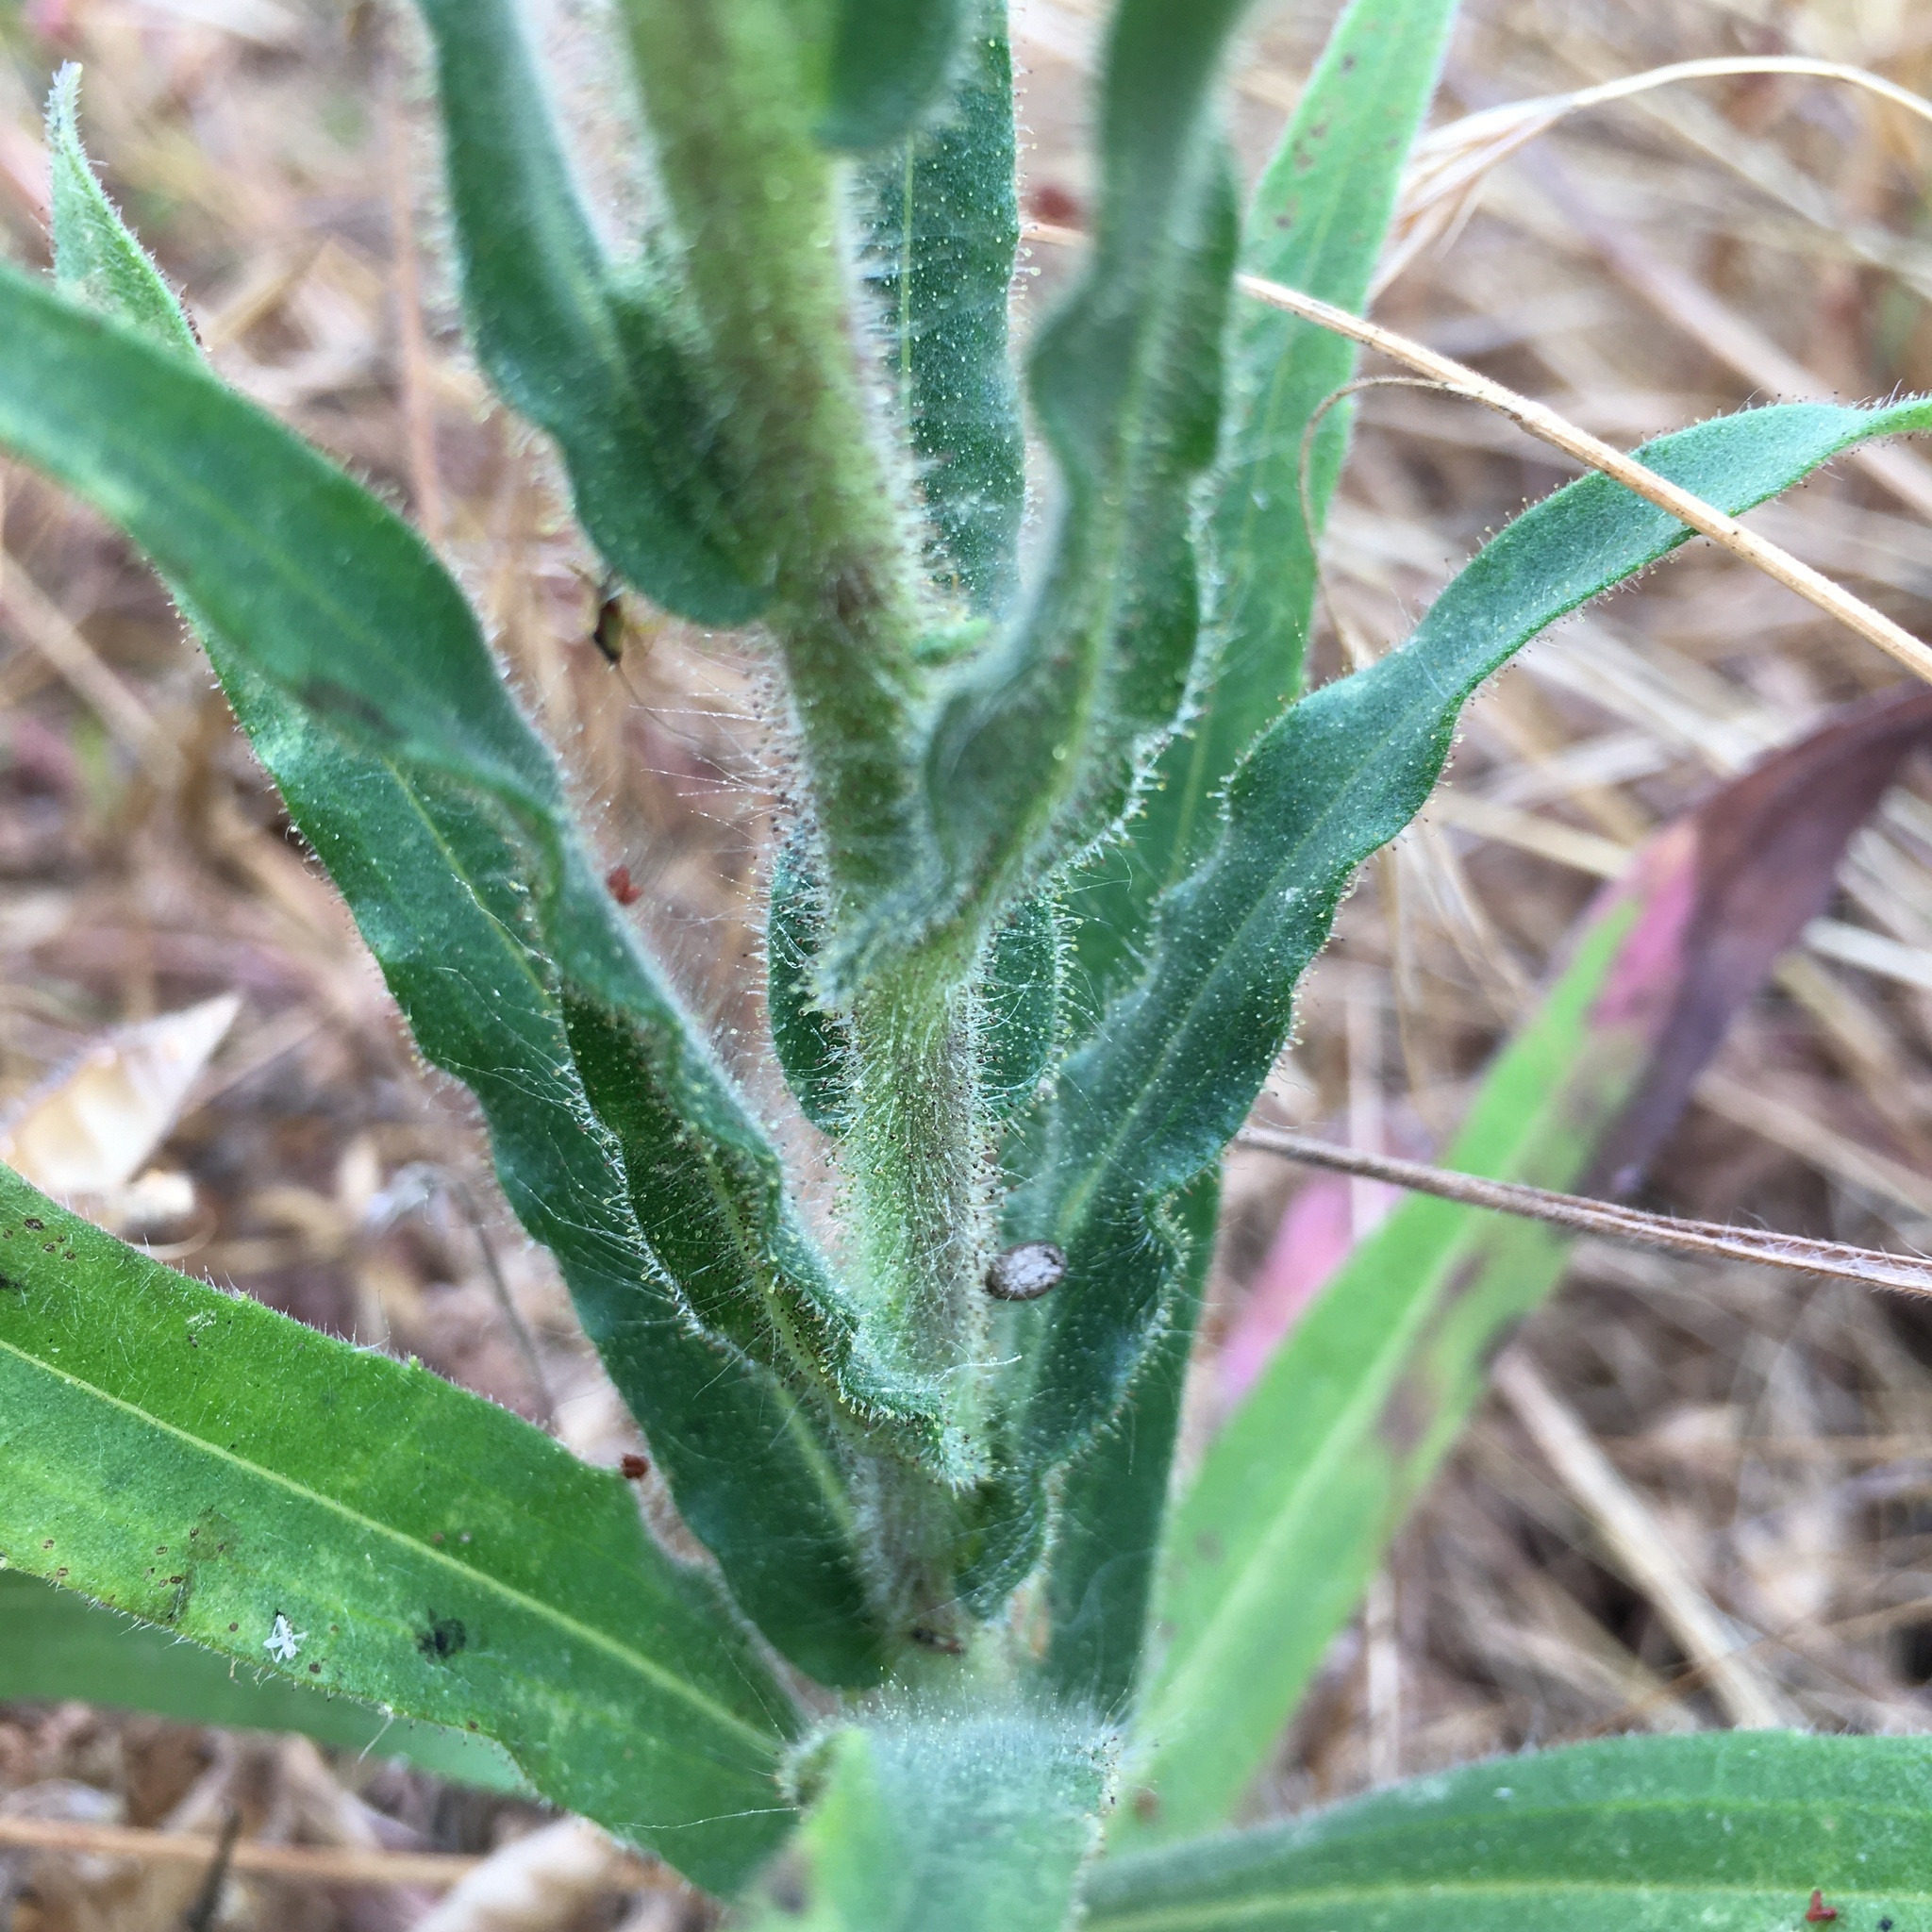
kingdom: Plantae
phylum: Tracheophyta
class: Magnoliopsida
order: Asterales
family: Asteraceae
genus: Madia
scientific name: Madia sativa
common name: Coast tarweed
